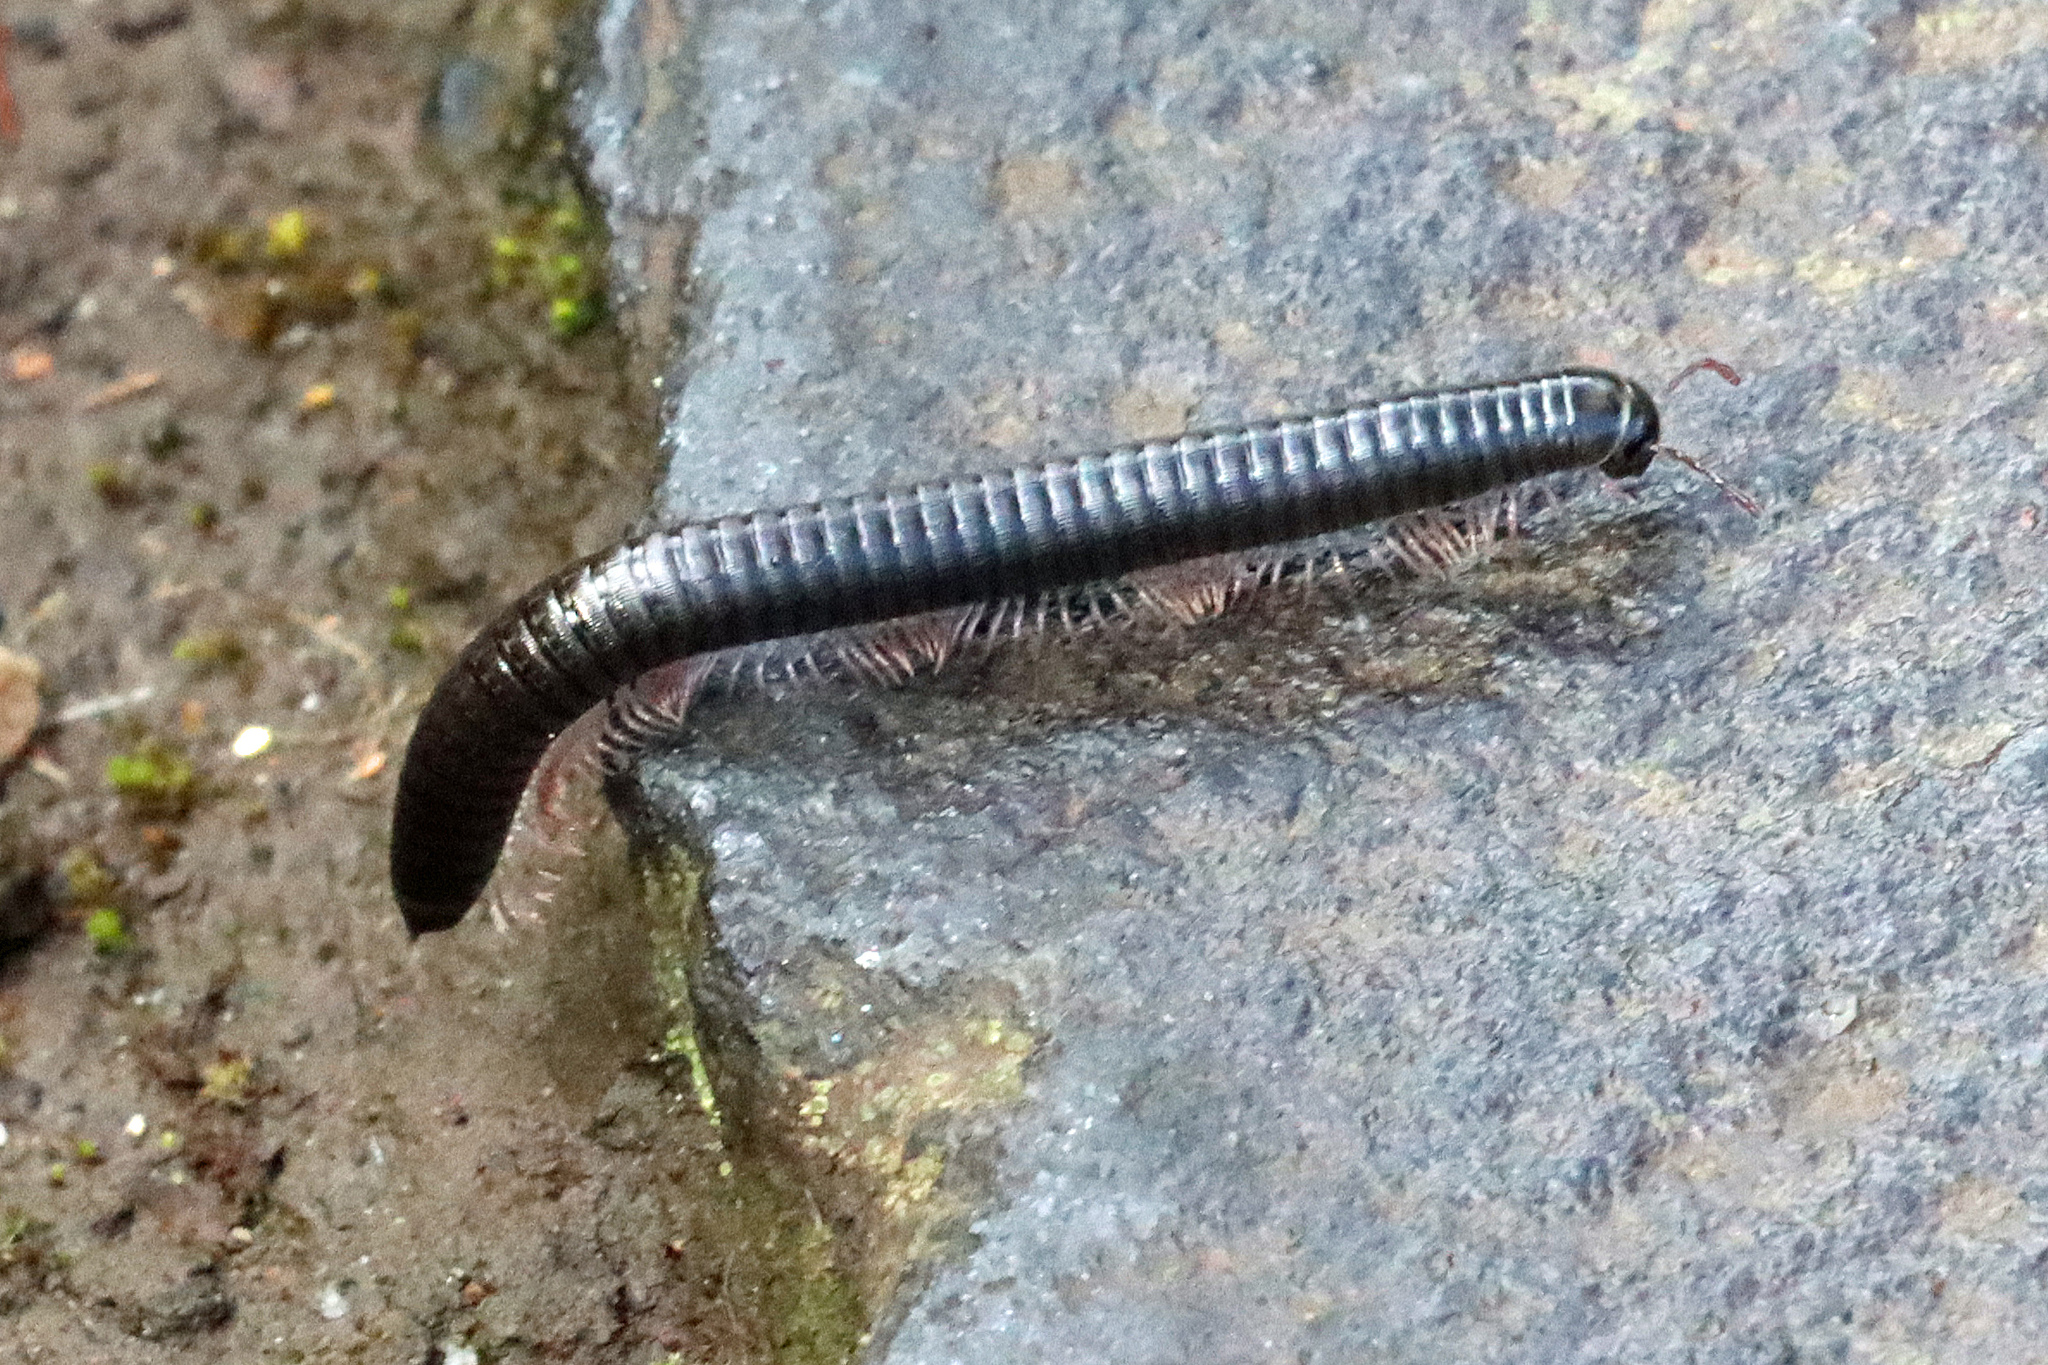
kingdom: Animalia
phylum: Arthropoda
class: Diplopoda
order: Julida
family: Julidae
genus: Ommatoiulus
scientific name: Ommatoiulus moreleti
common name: Portuguese millipede
